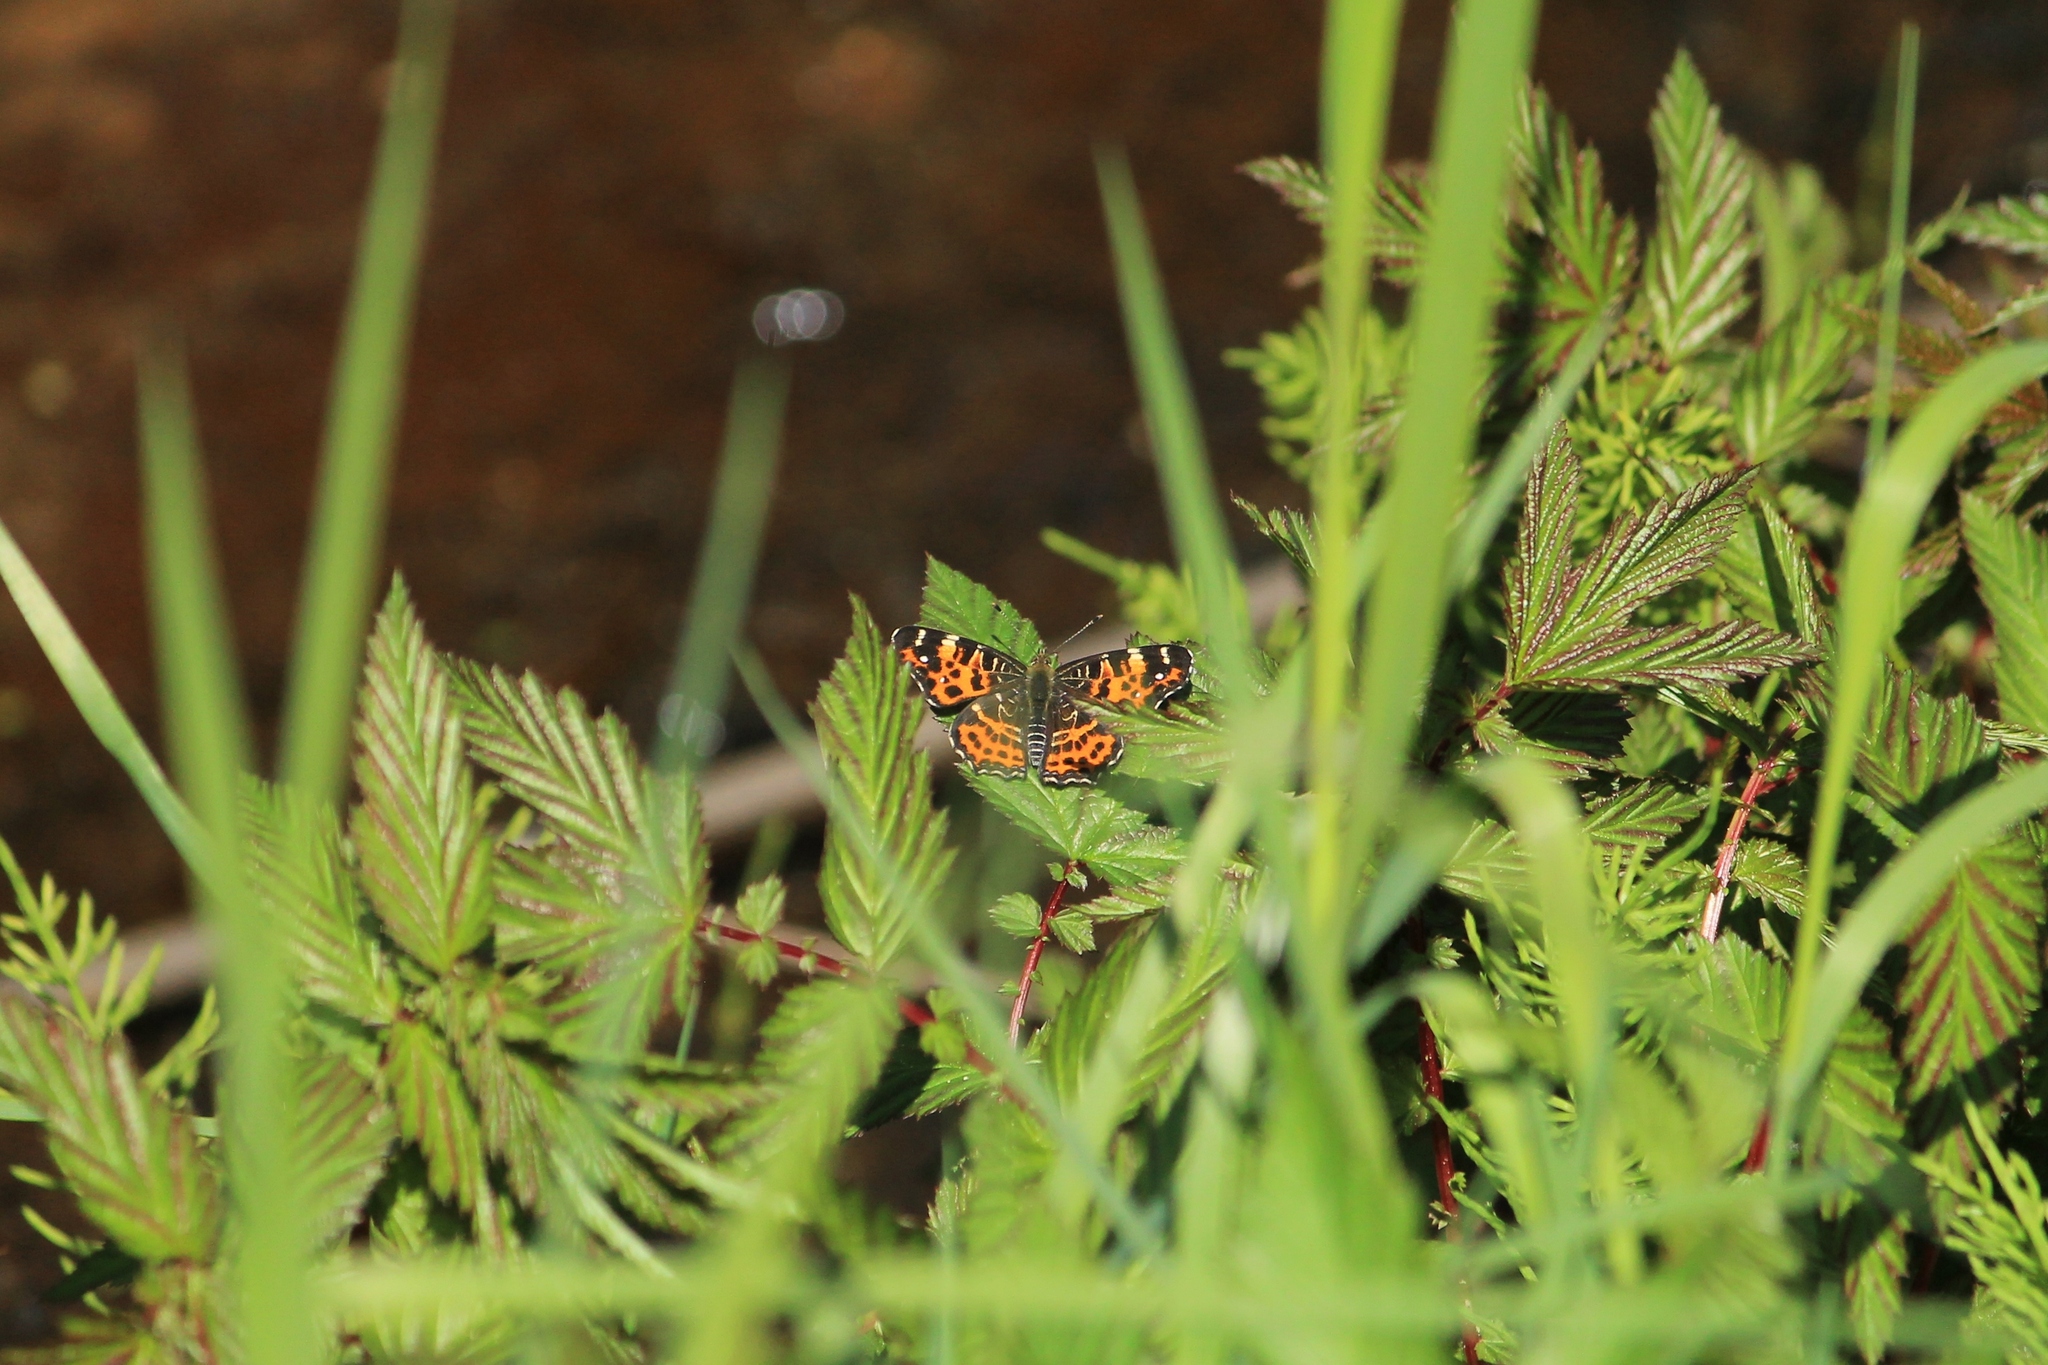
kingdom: Animalia
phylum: Arthropoda
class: Insecta
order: Lepidoptera
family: Nymphalidae
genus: Araschnia
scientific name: Araschnia levana
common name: Map butterfly
